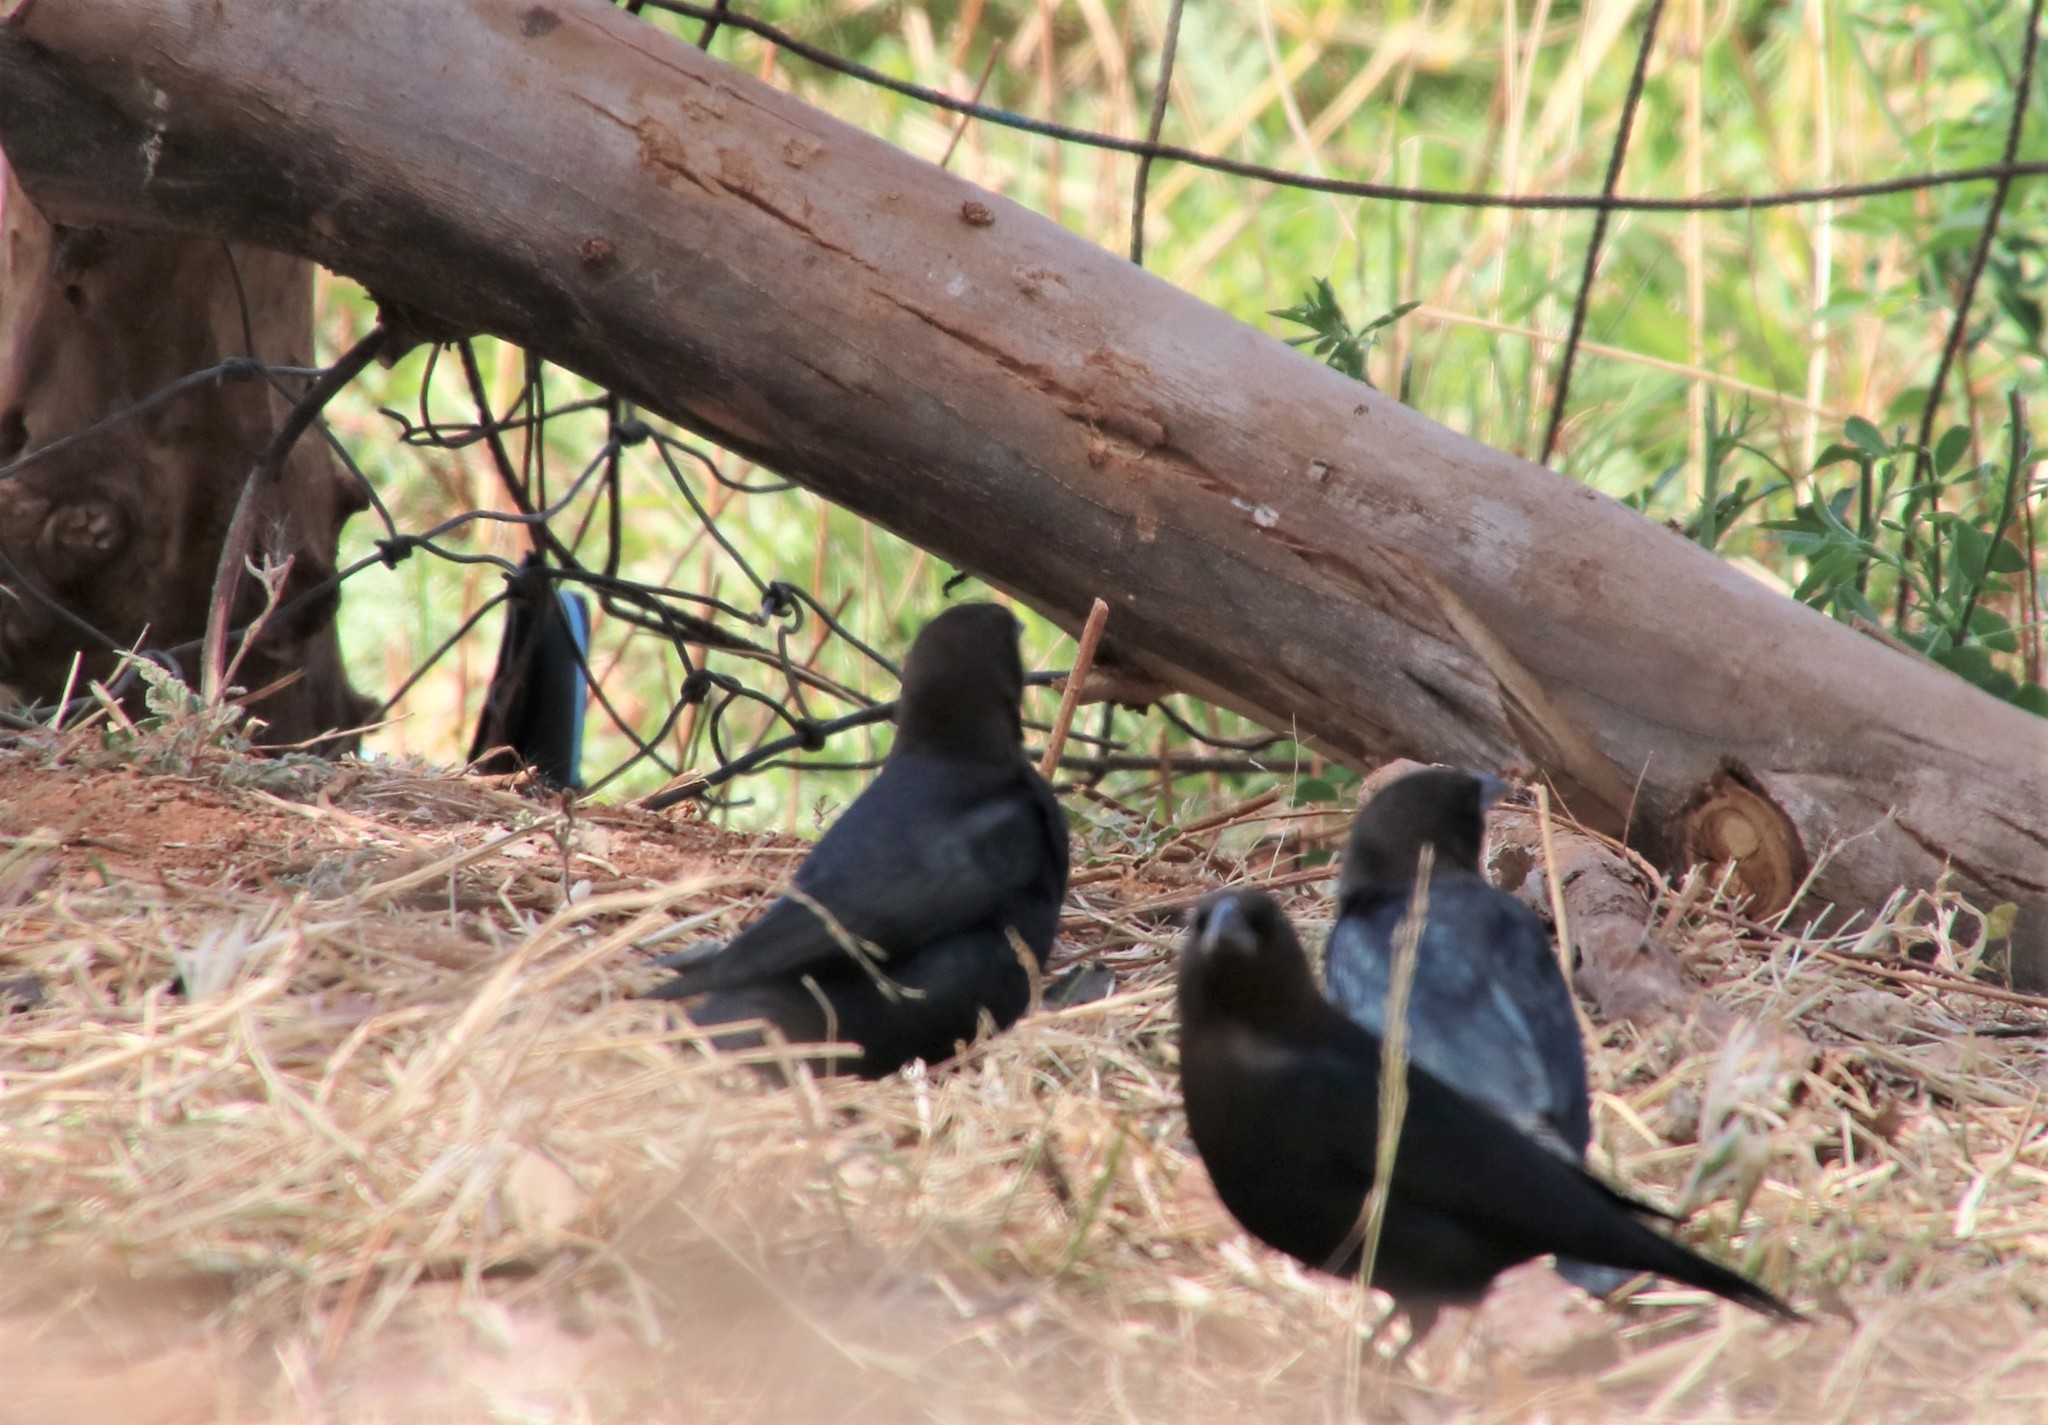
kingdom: Animalia
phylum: Chordata
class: Aves
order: Passeriformes
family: Icteridae
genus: Molothrus
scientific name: Molothrus ater
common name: Brown-headed cowbird
